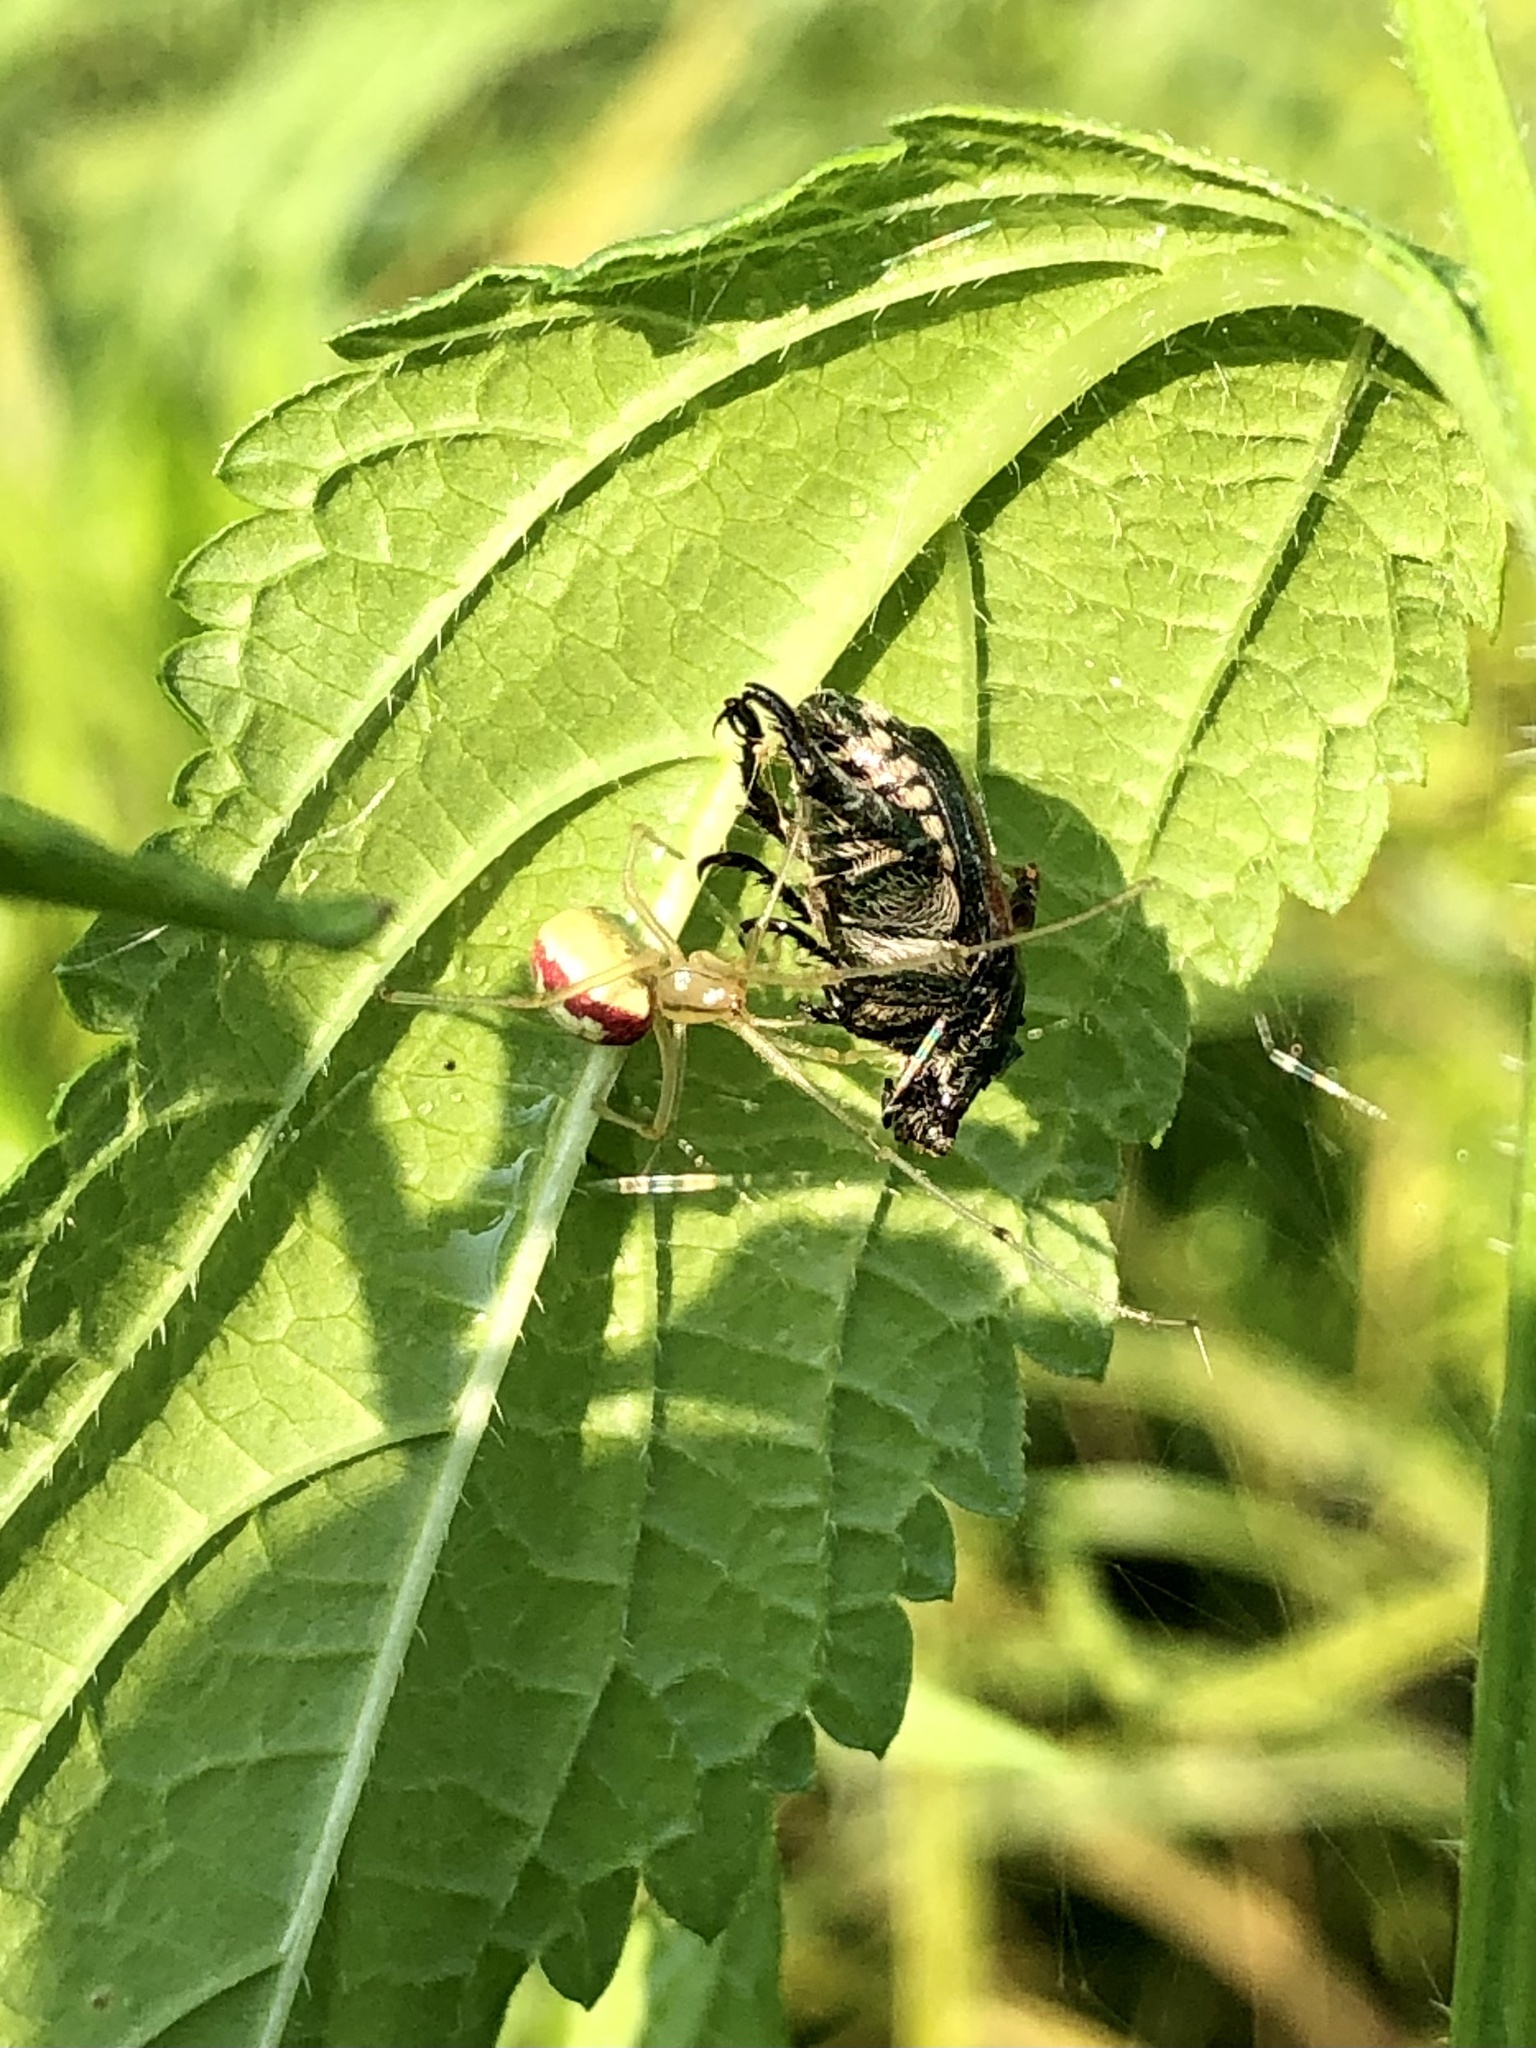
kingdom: Animalia
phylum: Arthropoda
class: Arachnida
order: Araneae
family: Theridiidae
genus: Enoplognatha
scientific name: Enoplognatha ovata
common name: Common candy-striped spider
